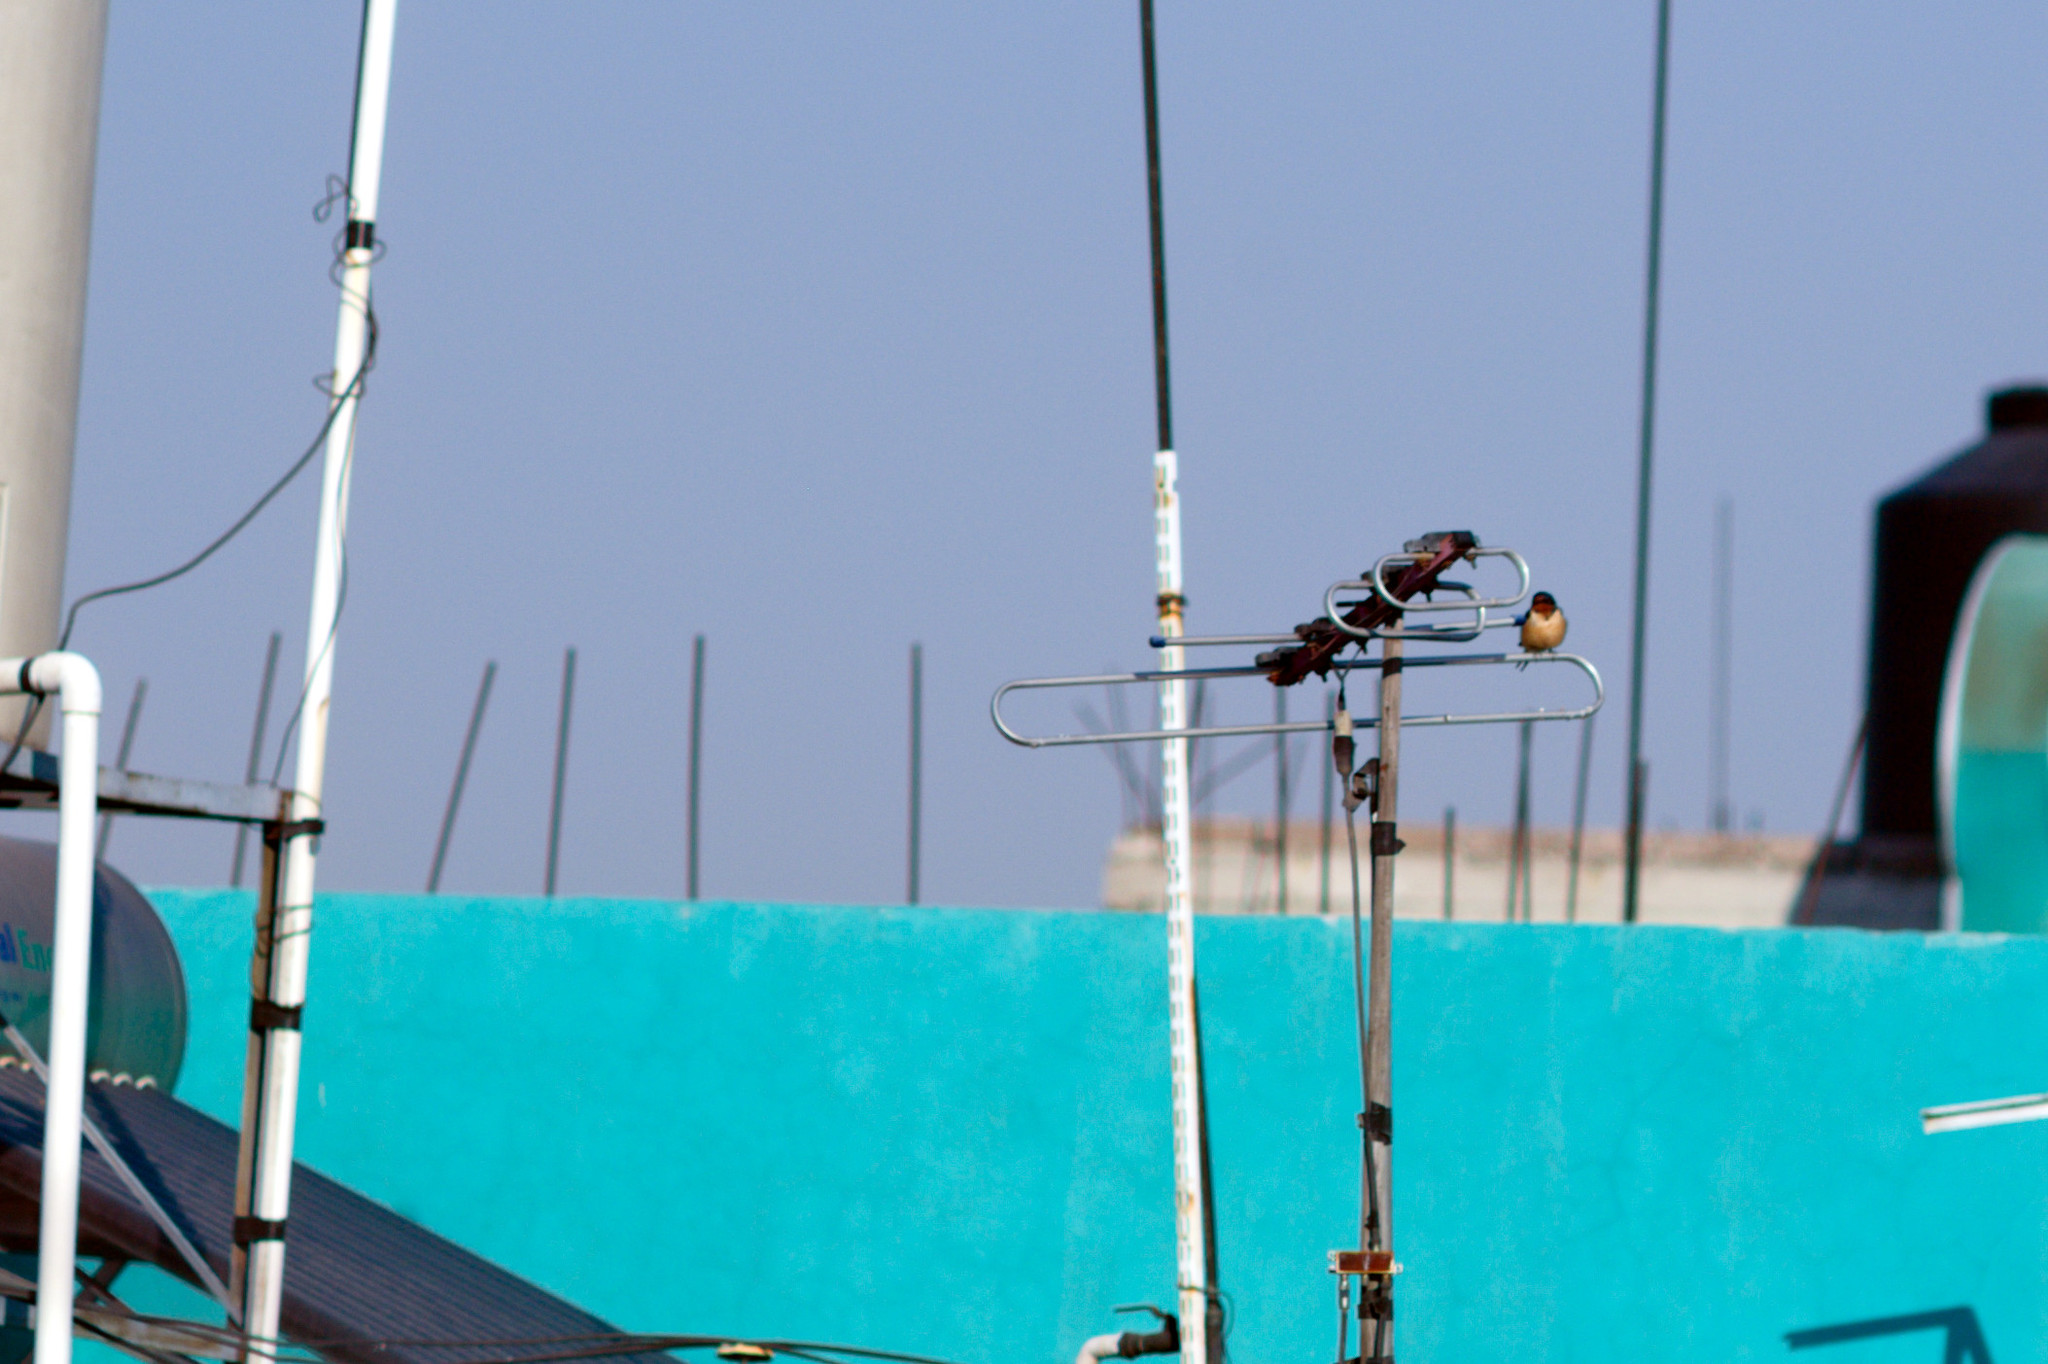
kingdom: Animalia
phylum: Chordata
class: Aves
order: Passeriformes
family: Hirundinidae
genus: Hirundo
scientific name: Hirundo rustica
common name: Barn swallow
